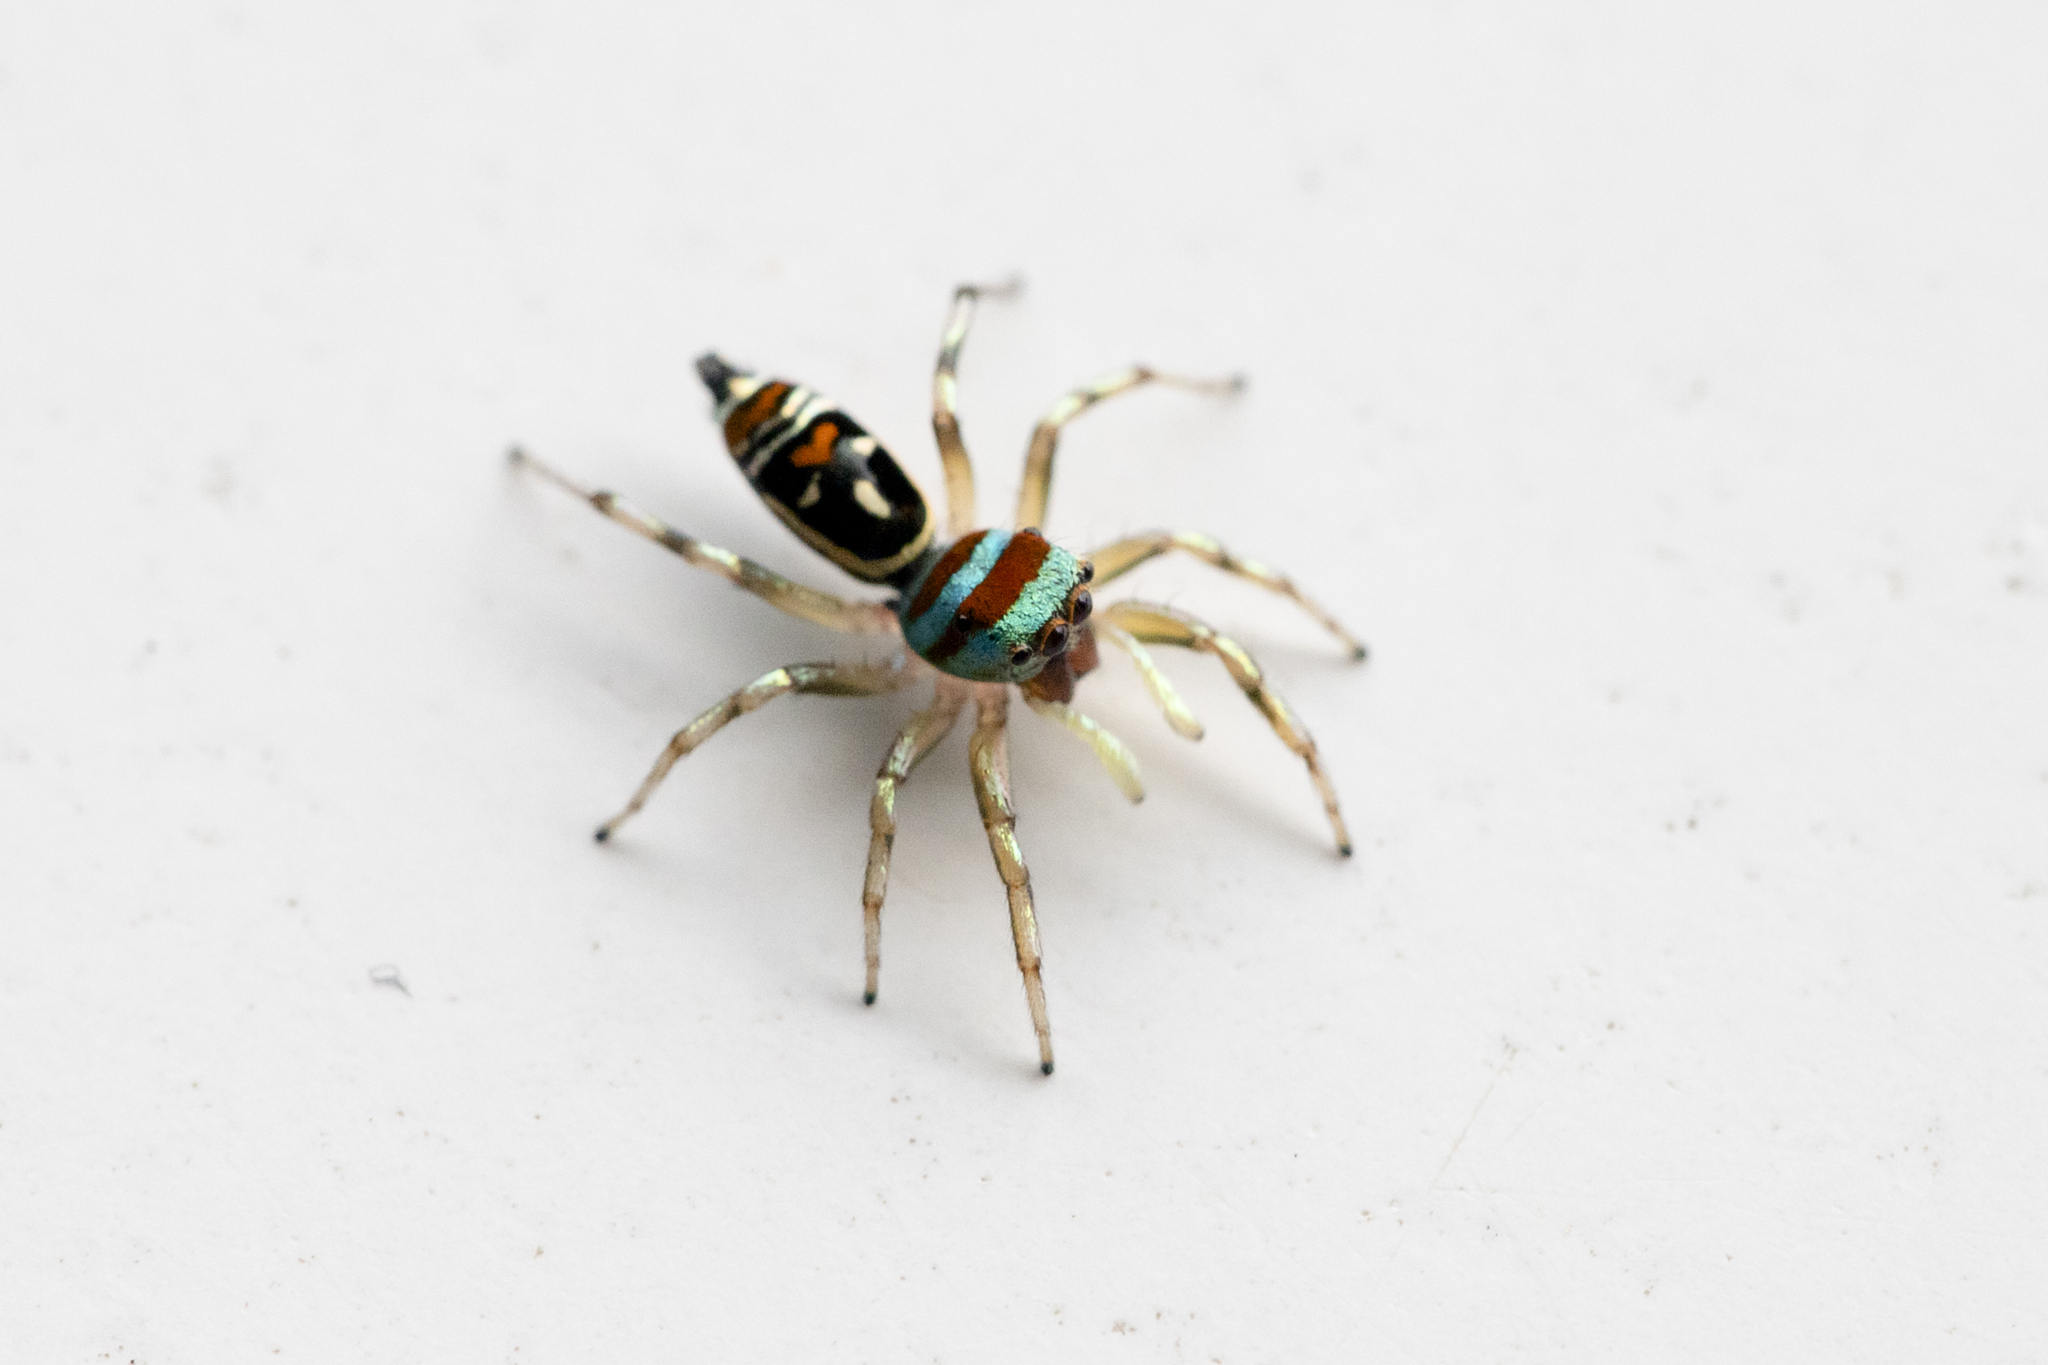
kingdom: Animalia
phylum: Arthropoda
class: Arachnida
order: Araneae
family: Salticidae
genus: Cosmophasis
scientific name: Cosmophasis micarioides
